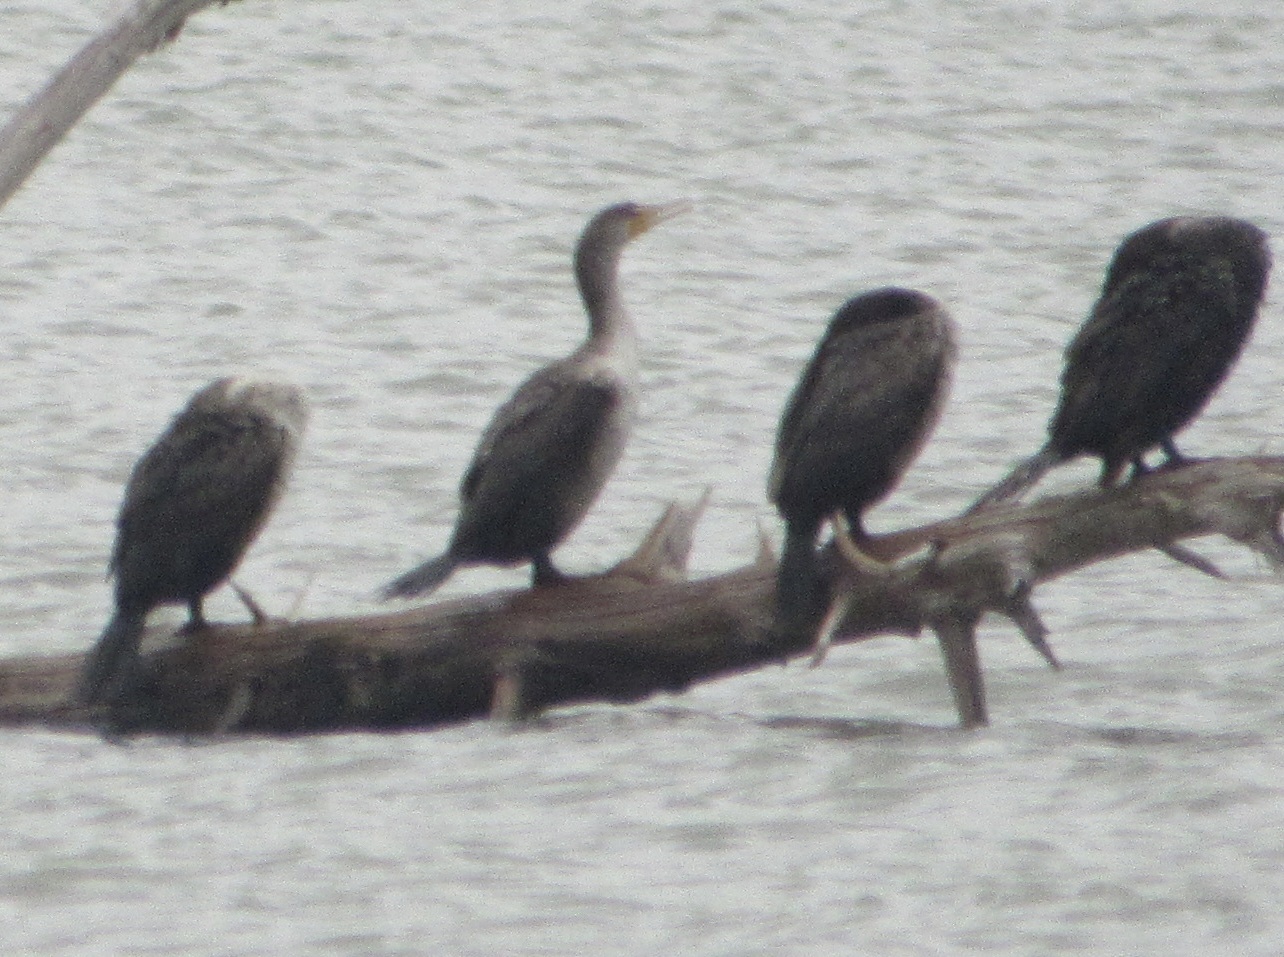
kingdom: Animalia
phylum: Chordata
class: Aves
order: Suliformes
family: Phalacrocoracidae
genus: Phalacrocorax
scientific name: Phalacrocorax auritus
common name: Double-crested cormorant
